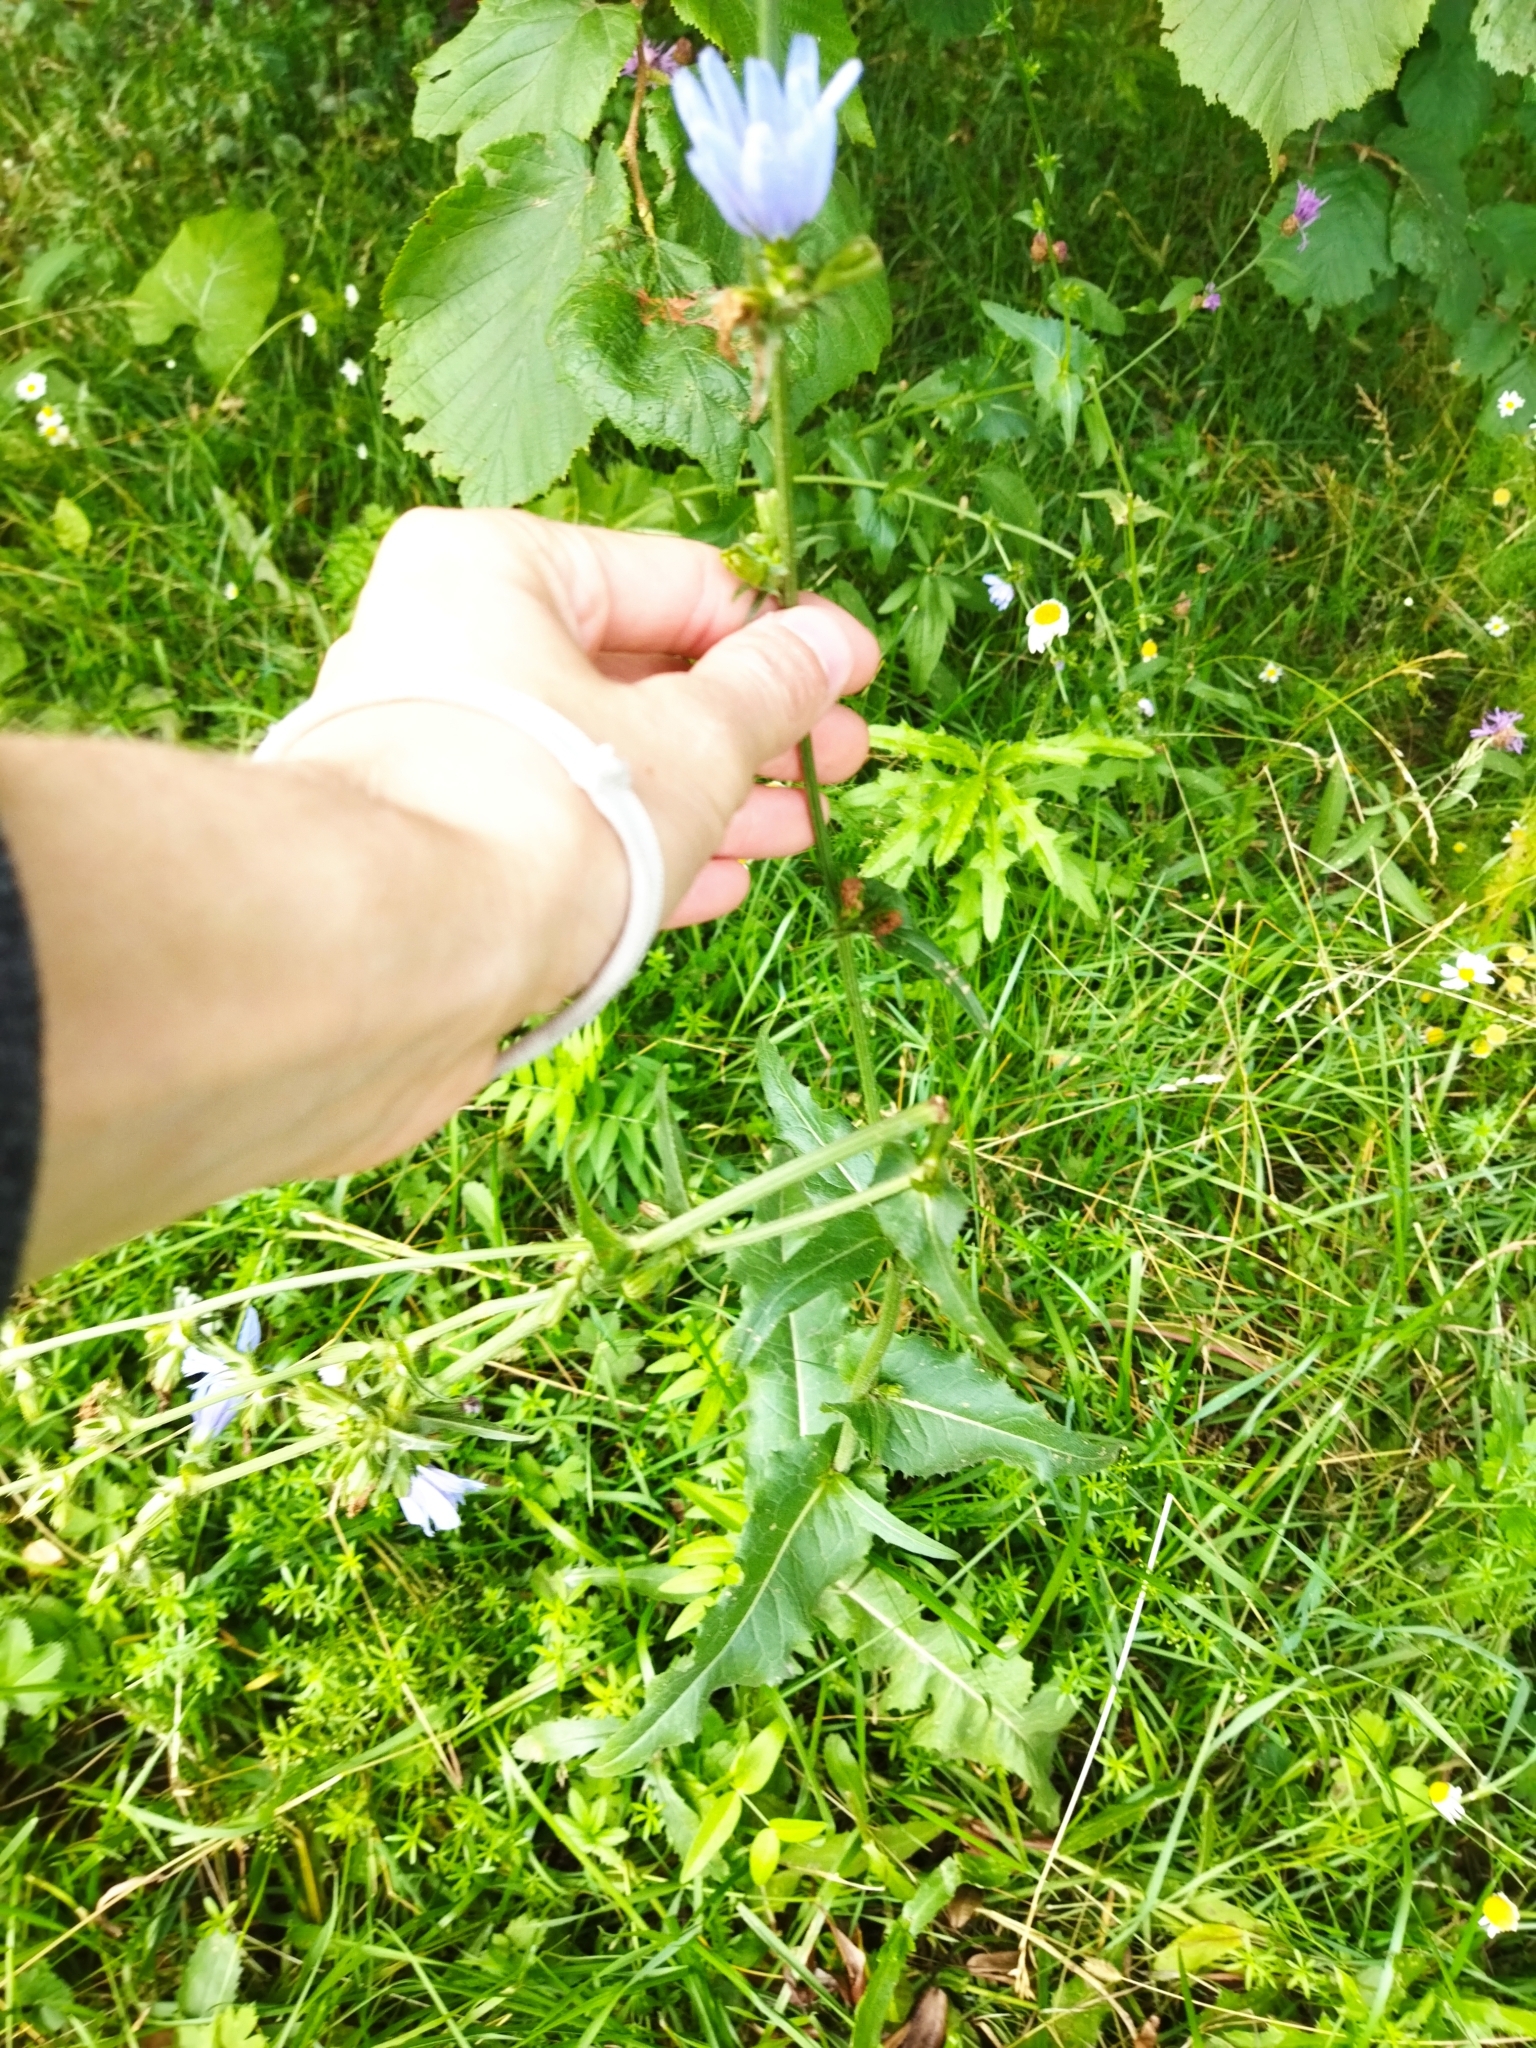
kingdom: Plantae
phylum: Tracheophyta
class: Magnoliopsida
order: Asterales
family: Asteraceae
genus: Cichorium
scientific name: Cichorium intybus
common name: Chicory
